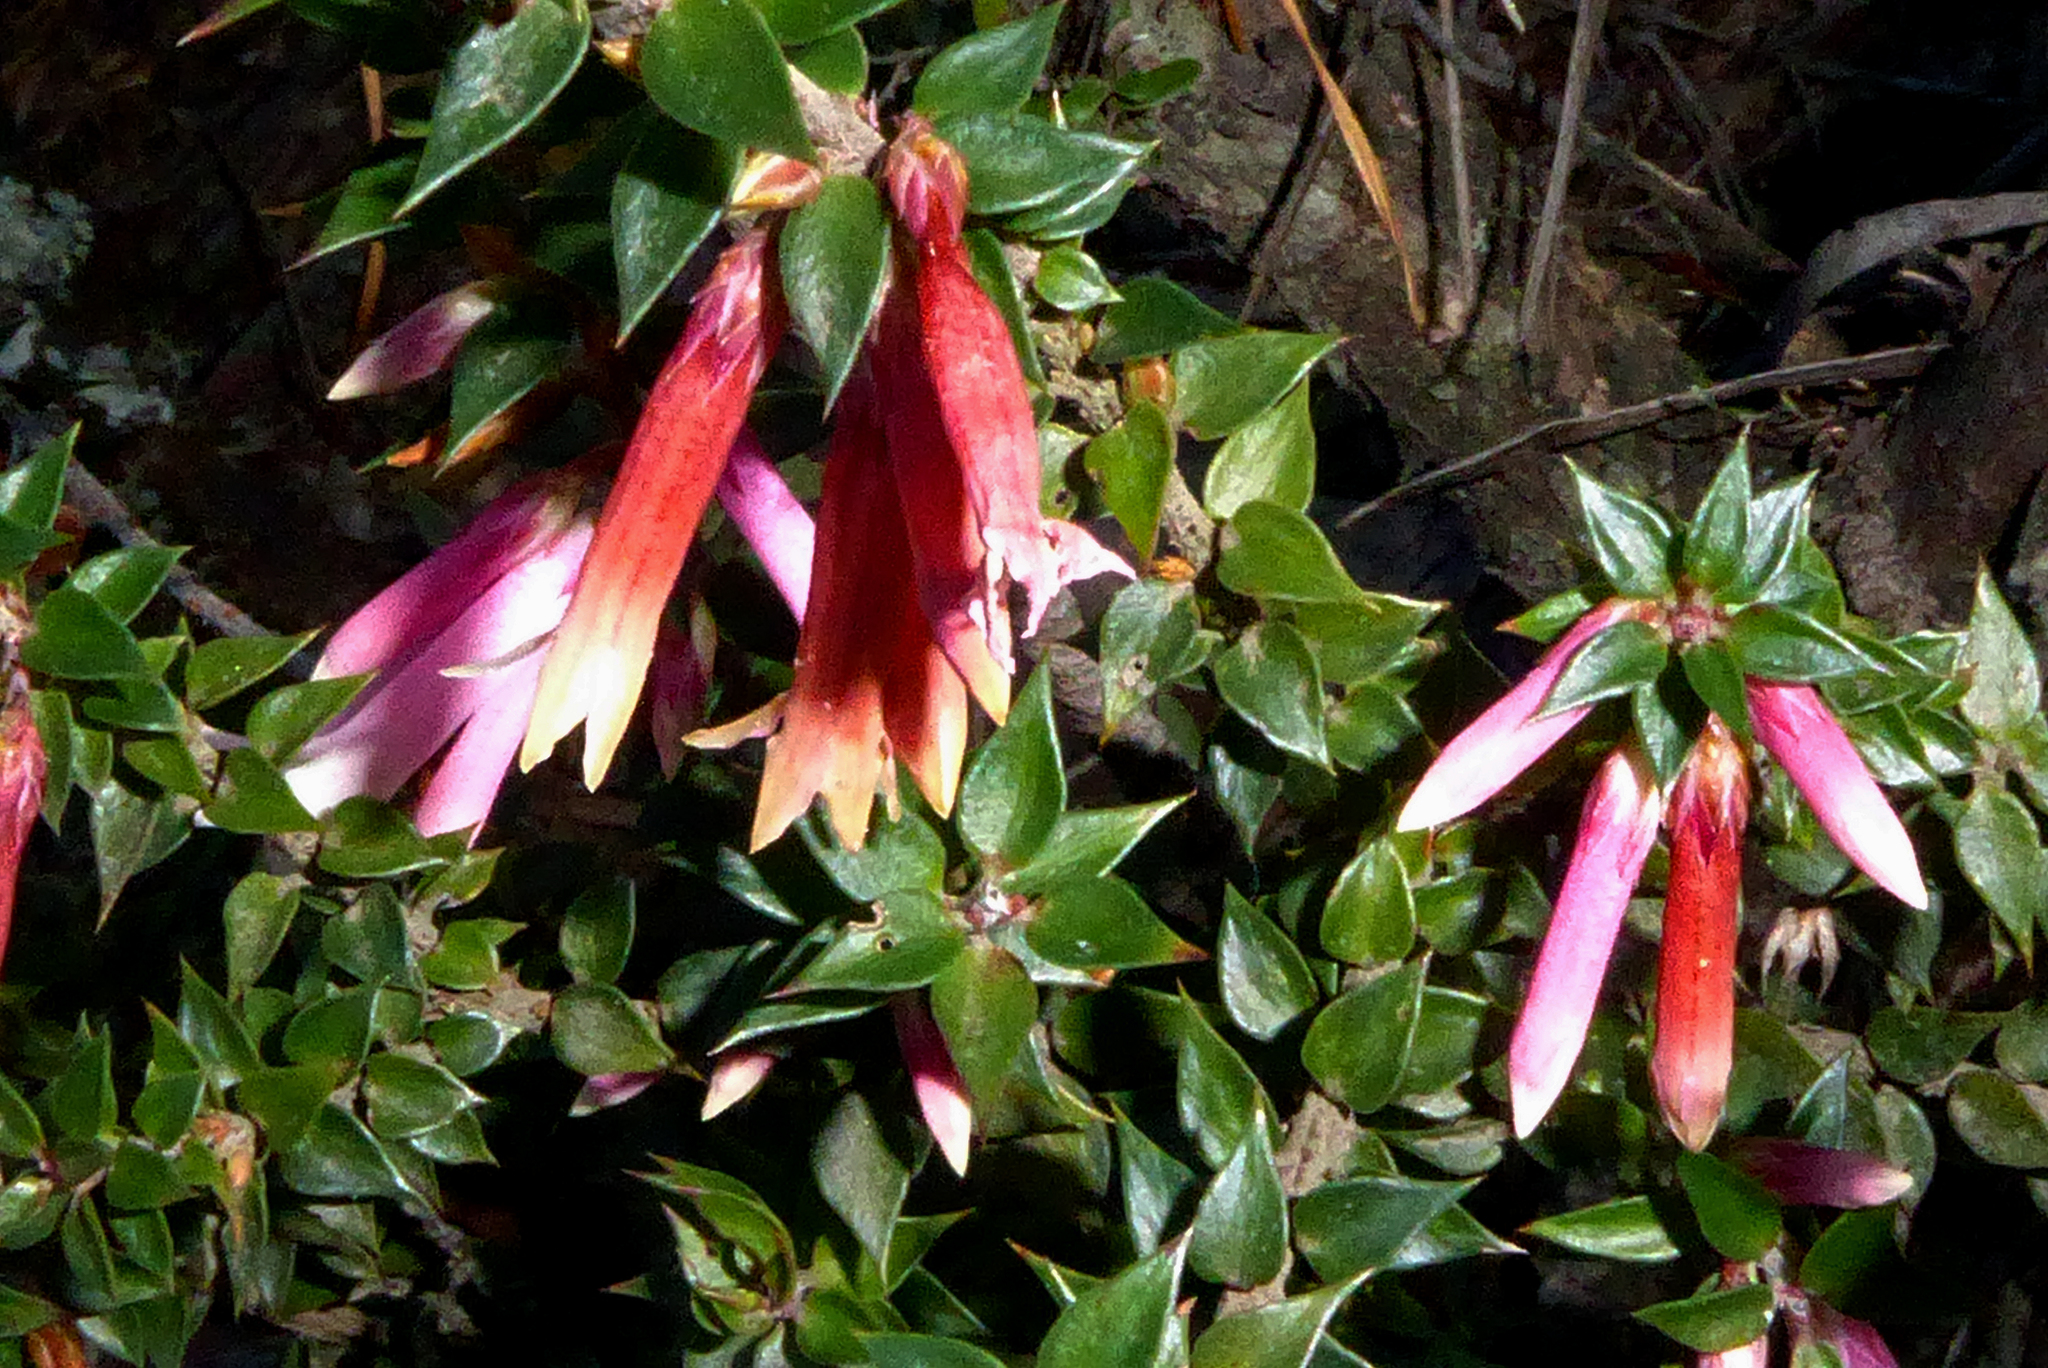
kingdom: Plantae
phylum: Tracheophyta
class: Magnoliopsida
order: Ericales
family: Ericaceae
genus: Epacris
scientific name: Epacris reclinata
